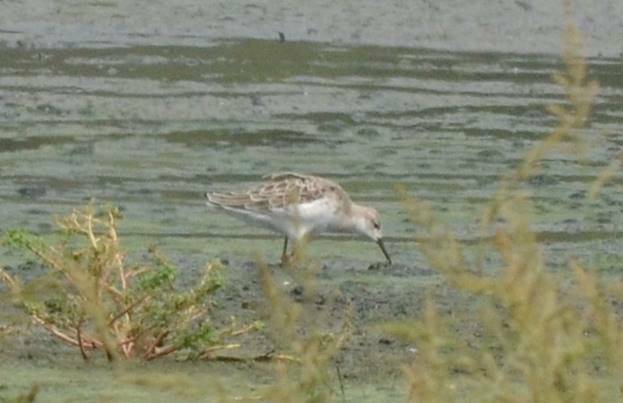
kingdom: Animalia
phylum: Chordata
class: Aves
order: Charadriiformes
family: Scolopacidae
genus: Calidris
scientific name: Calidris pugnax
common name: Ruff
